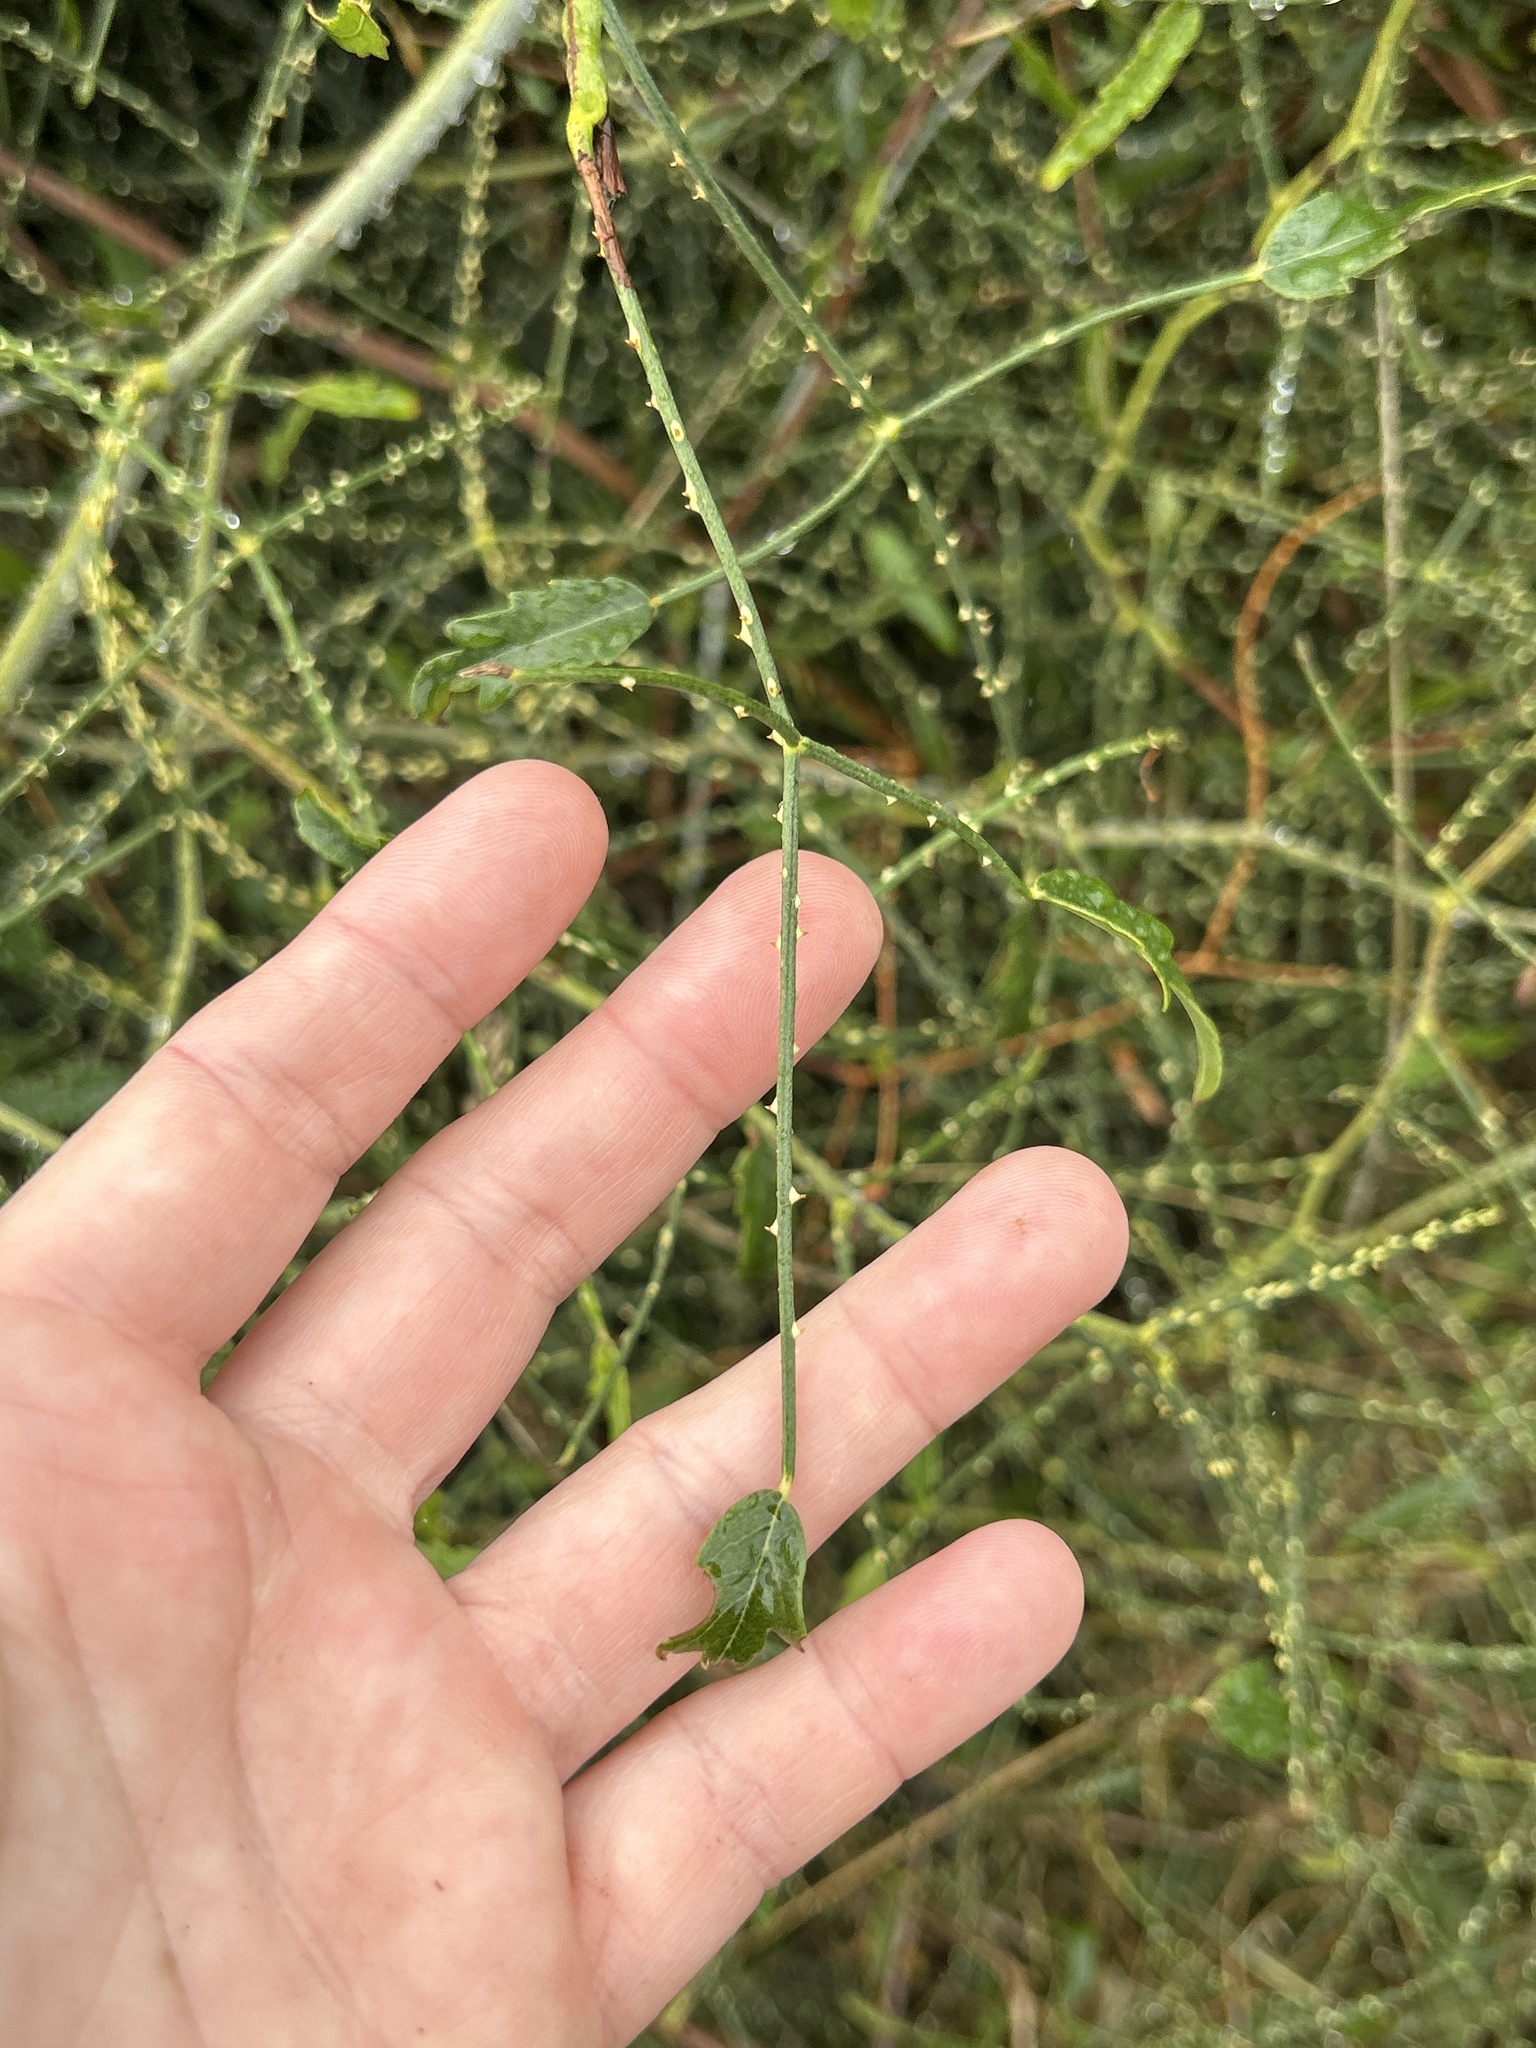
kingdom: Plantae
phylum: Tracheophyta
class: Magnoliopsida
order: Rosales
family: Rosaceae
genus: Rubus
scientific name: Rubus squarrosus
